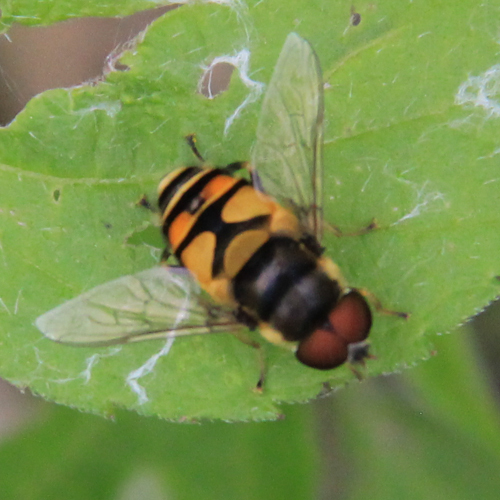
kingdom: Animalia
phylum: Arthropoda
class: Insecta
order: Diptera
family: Syrphidae
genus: Eristalis
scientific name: Eristalis transversa
